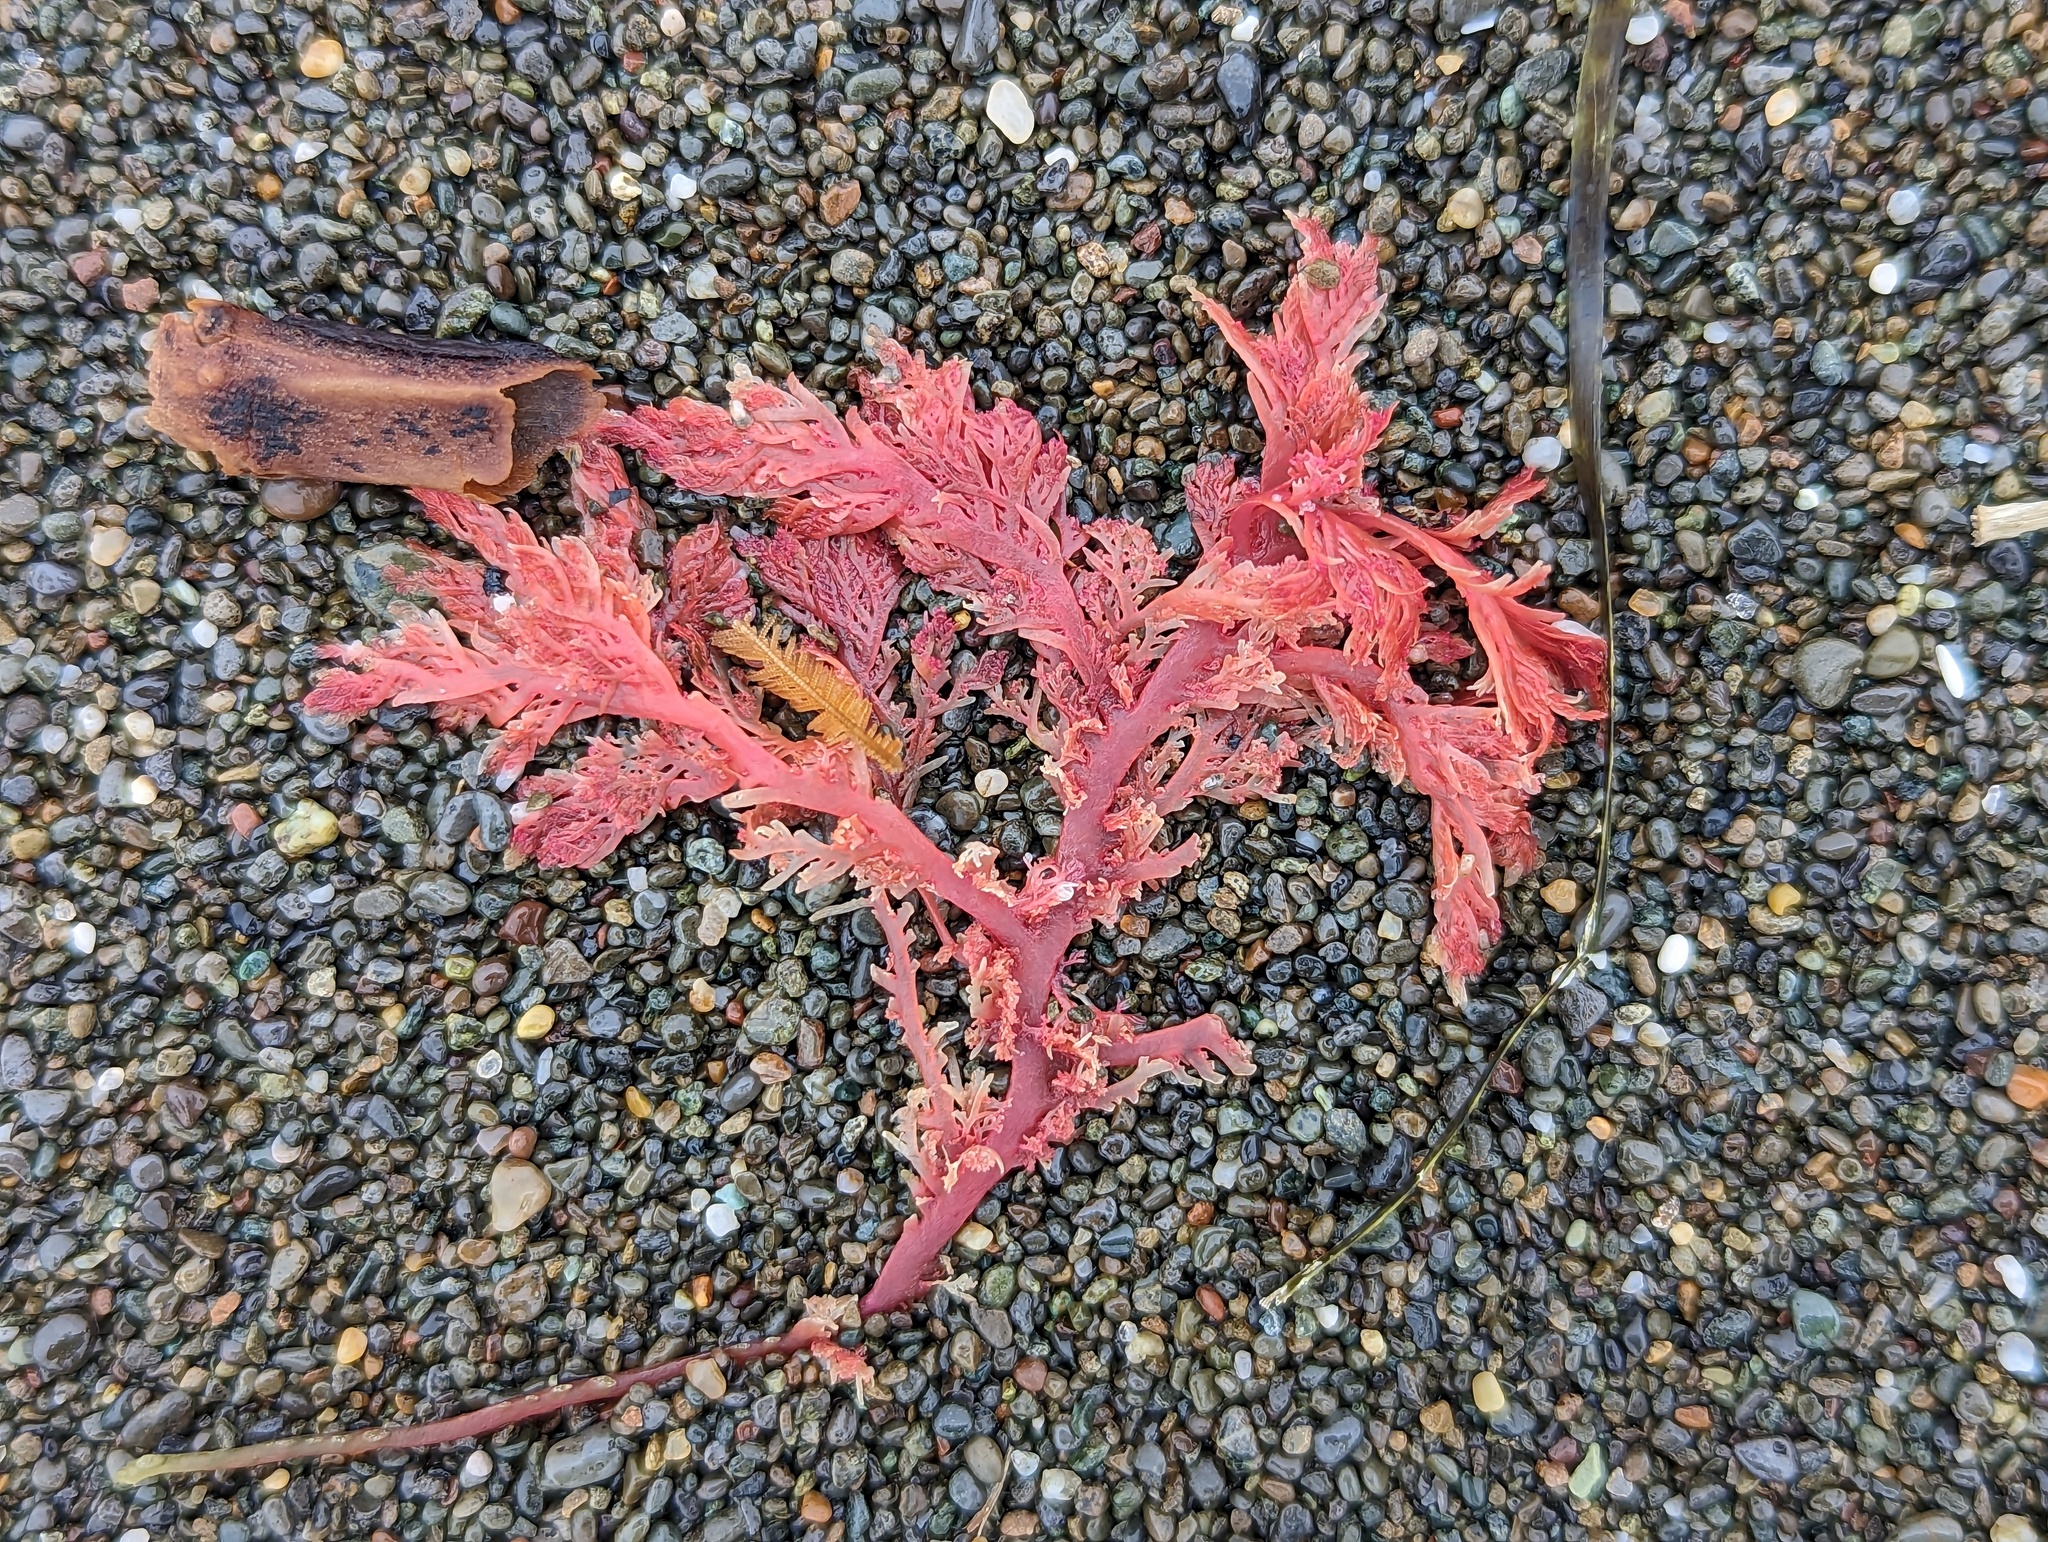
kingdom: Plantae
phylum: Rhodophyta
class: Florideophyceae
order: Plocamiales
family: Plocamiaceae
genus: Plocamium
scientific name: Plocamium cartilagineum
